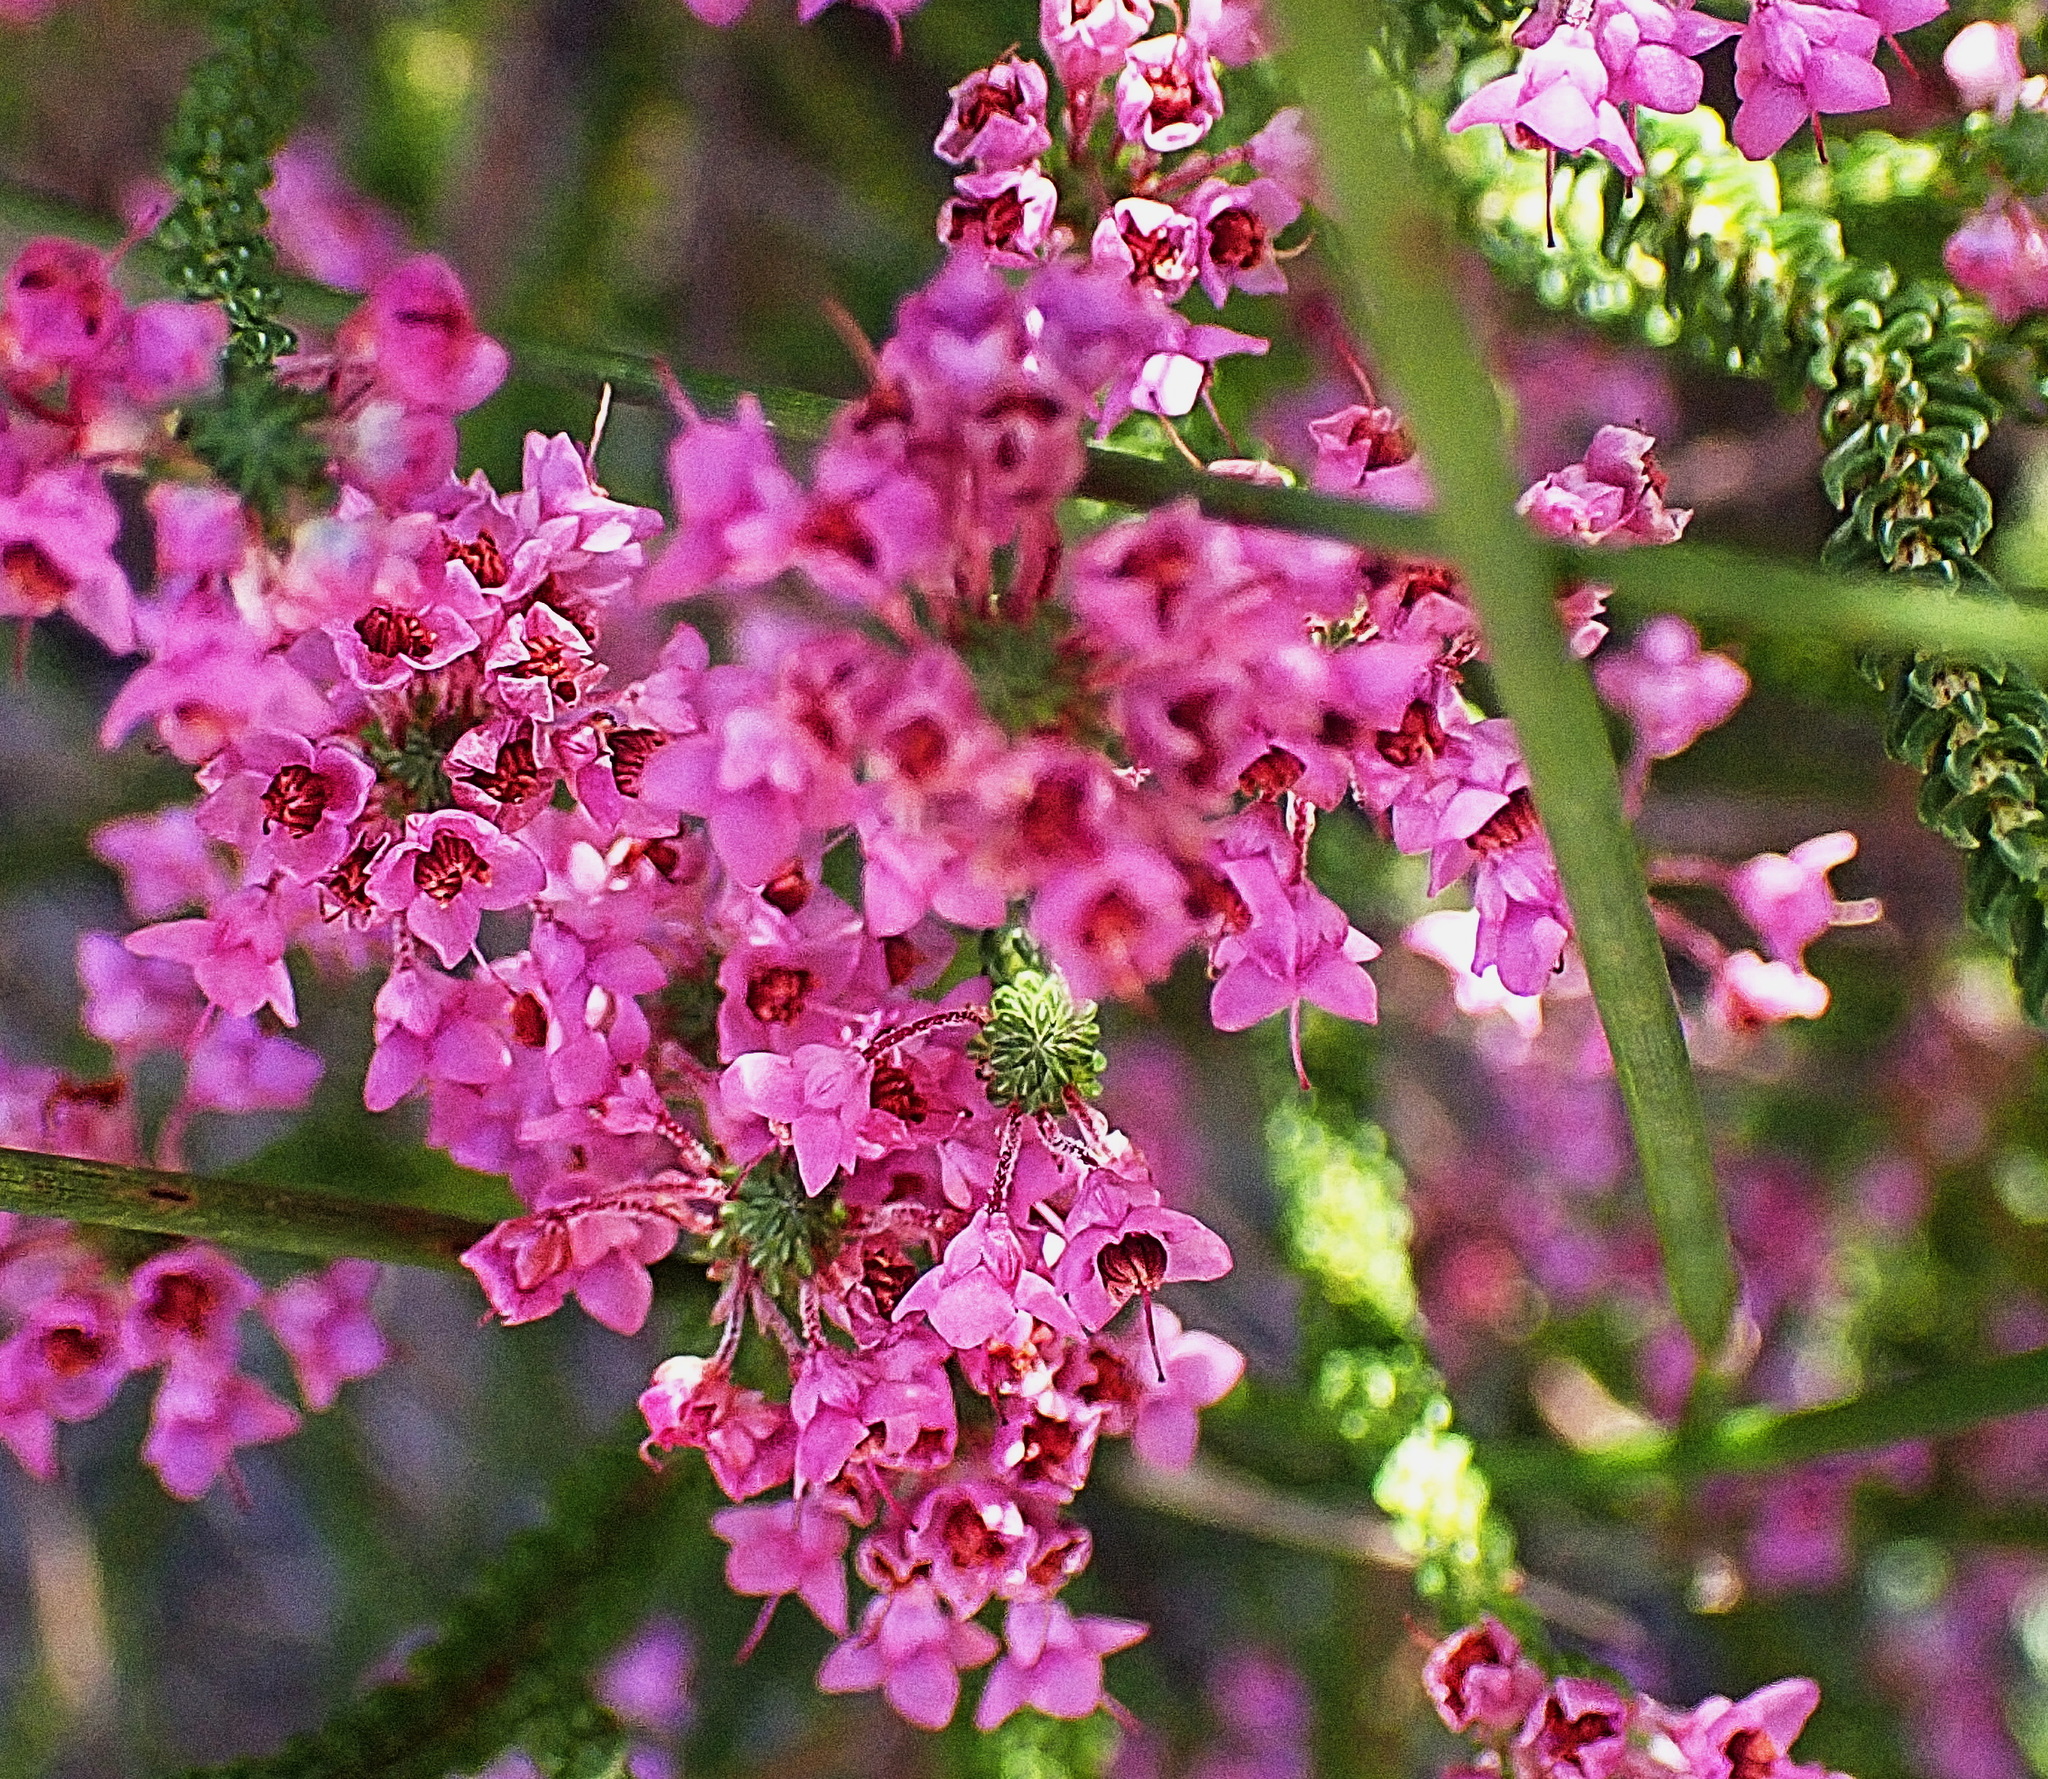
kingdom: Plantae
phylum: Tracheophyta
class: Magnoliopsida
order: Ericales
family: Ericaceae
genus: Erica
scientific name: Erica seriphiifolia
